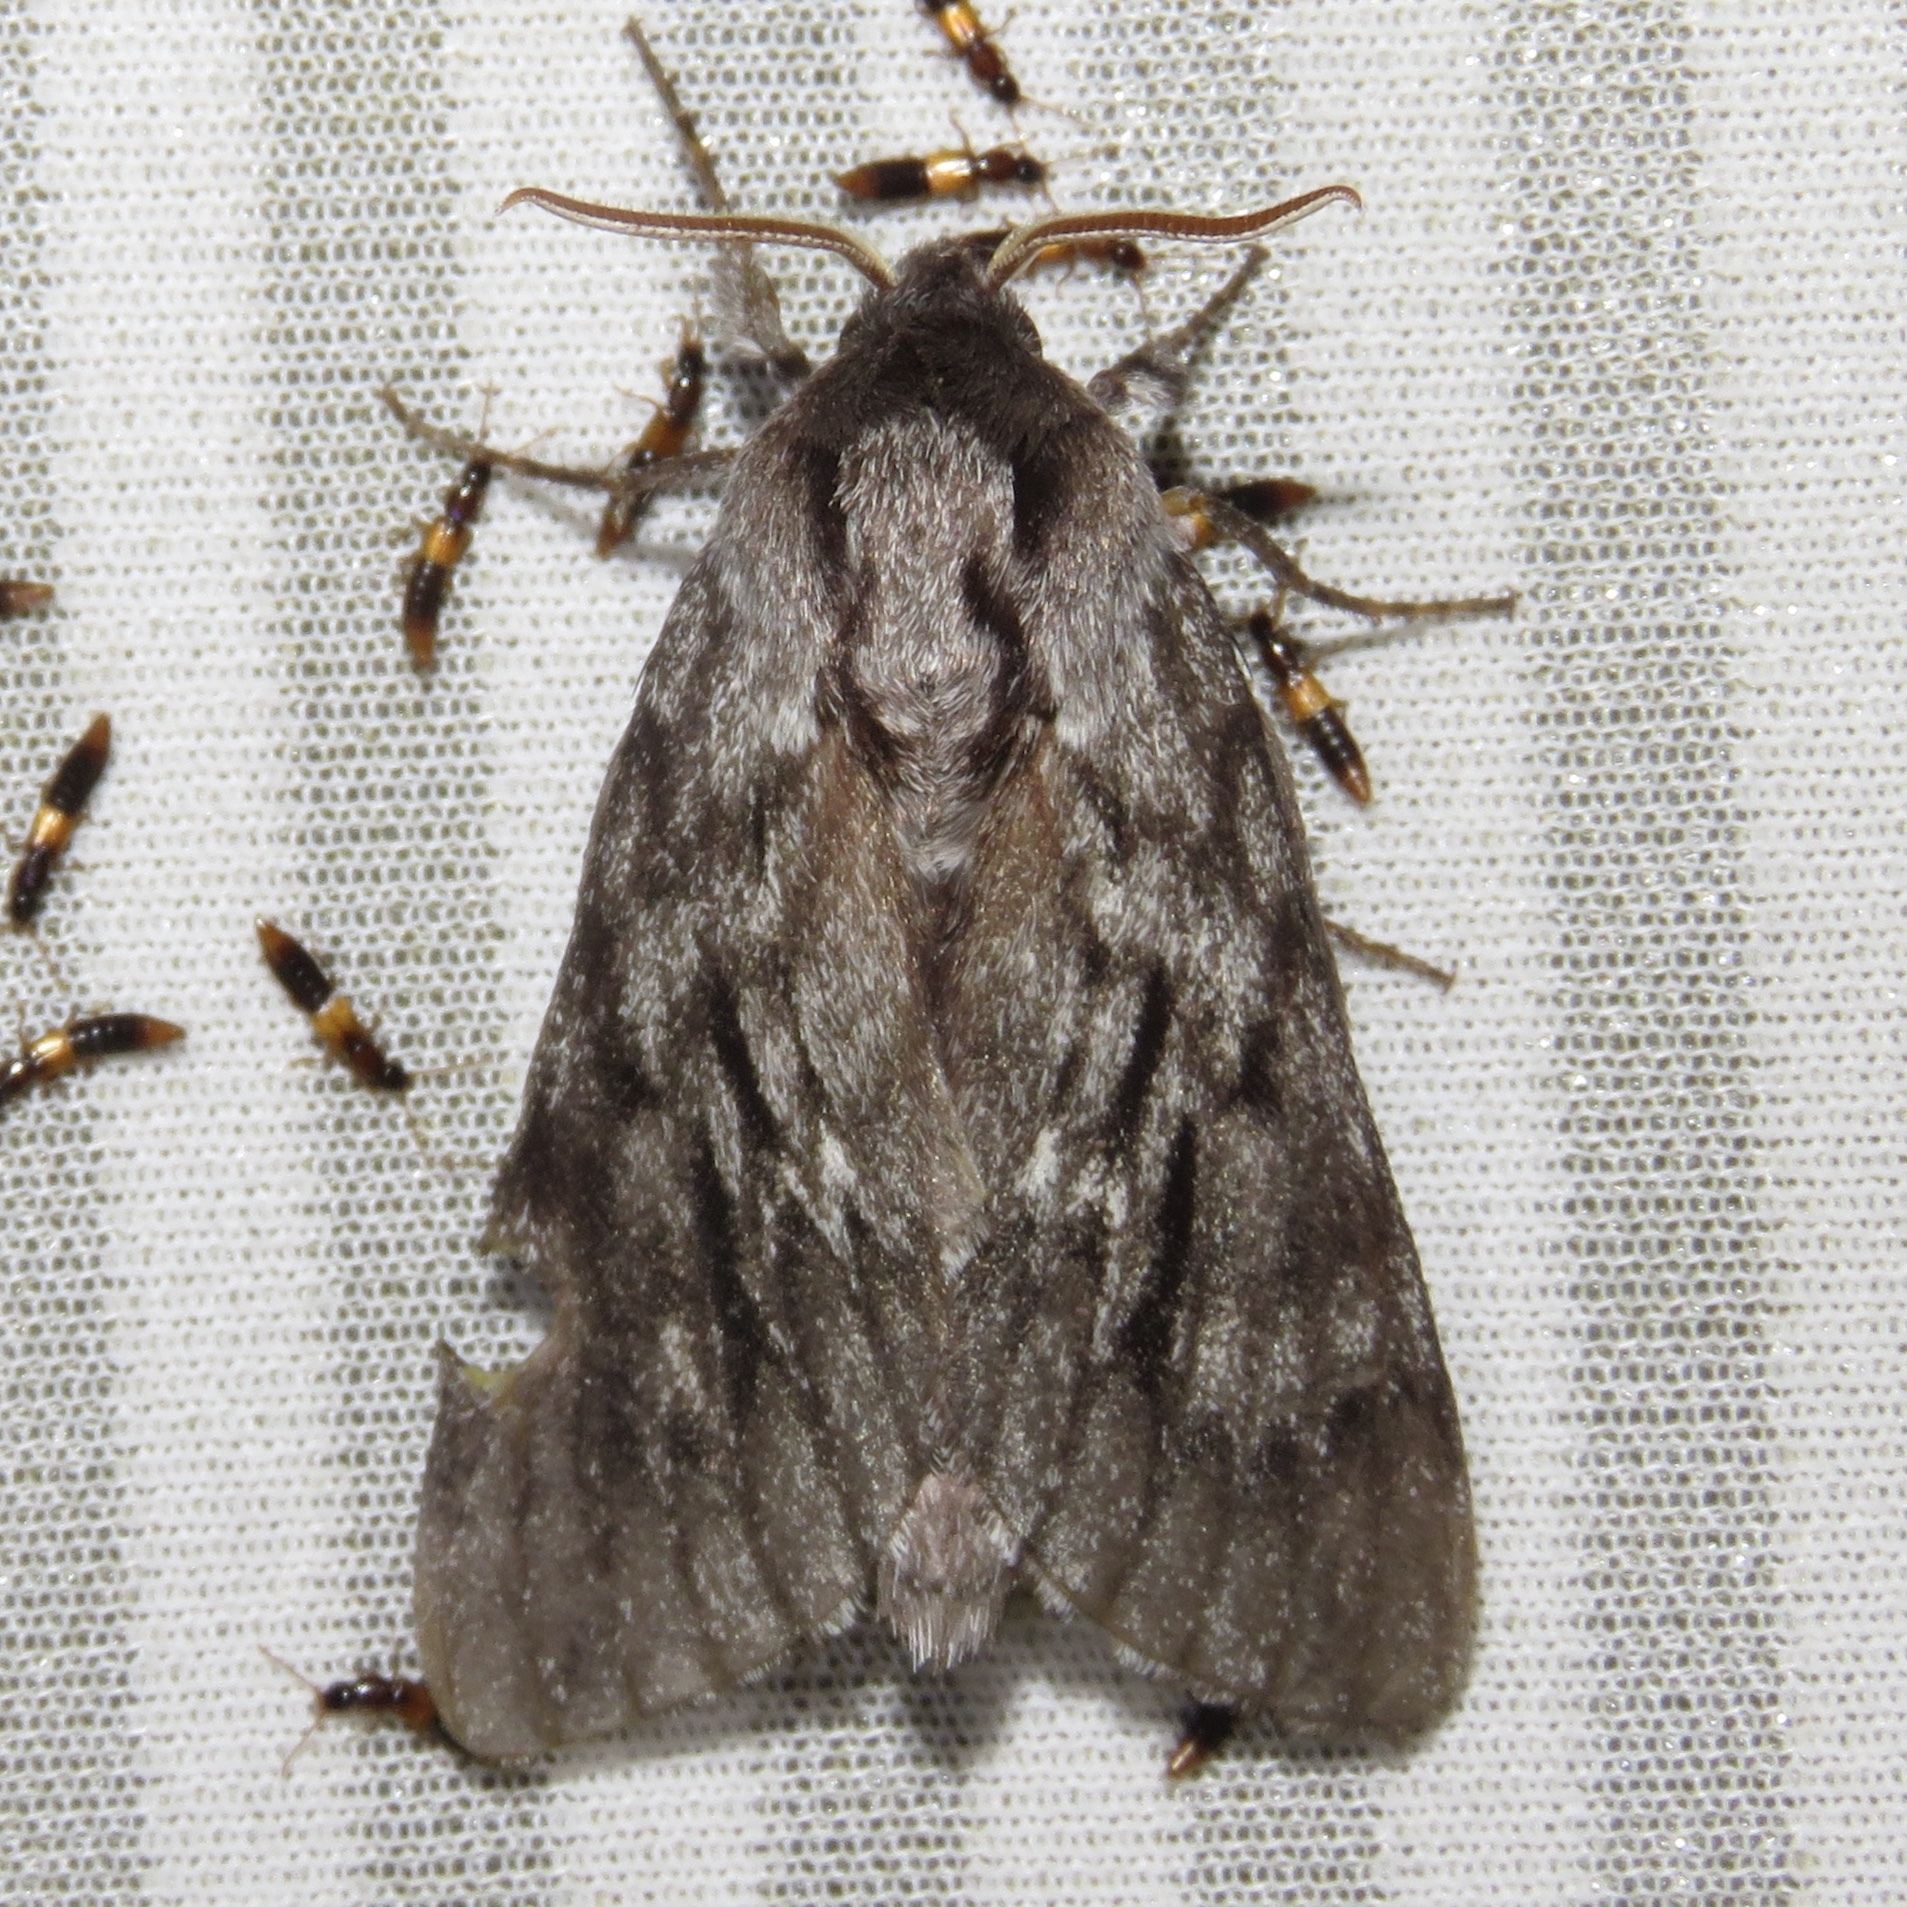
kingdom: Animalia
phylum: Arthropoda
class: Insecta
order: Lepidoptera
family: Sphingidae
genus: Lapara
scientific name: Lapara bombycoides
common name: Northern pine sphinx
